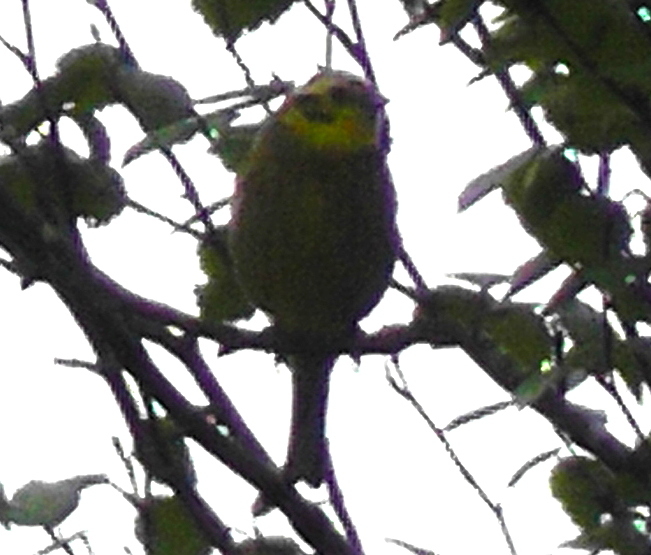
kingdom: Animalia
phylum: Chordata
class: Aves
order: Passeriformes
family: Emberizidae
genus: Emberiza
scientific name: Emberiza citrinella
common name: Yellowhammer
